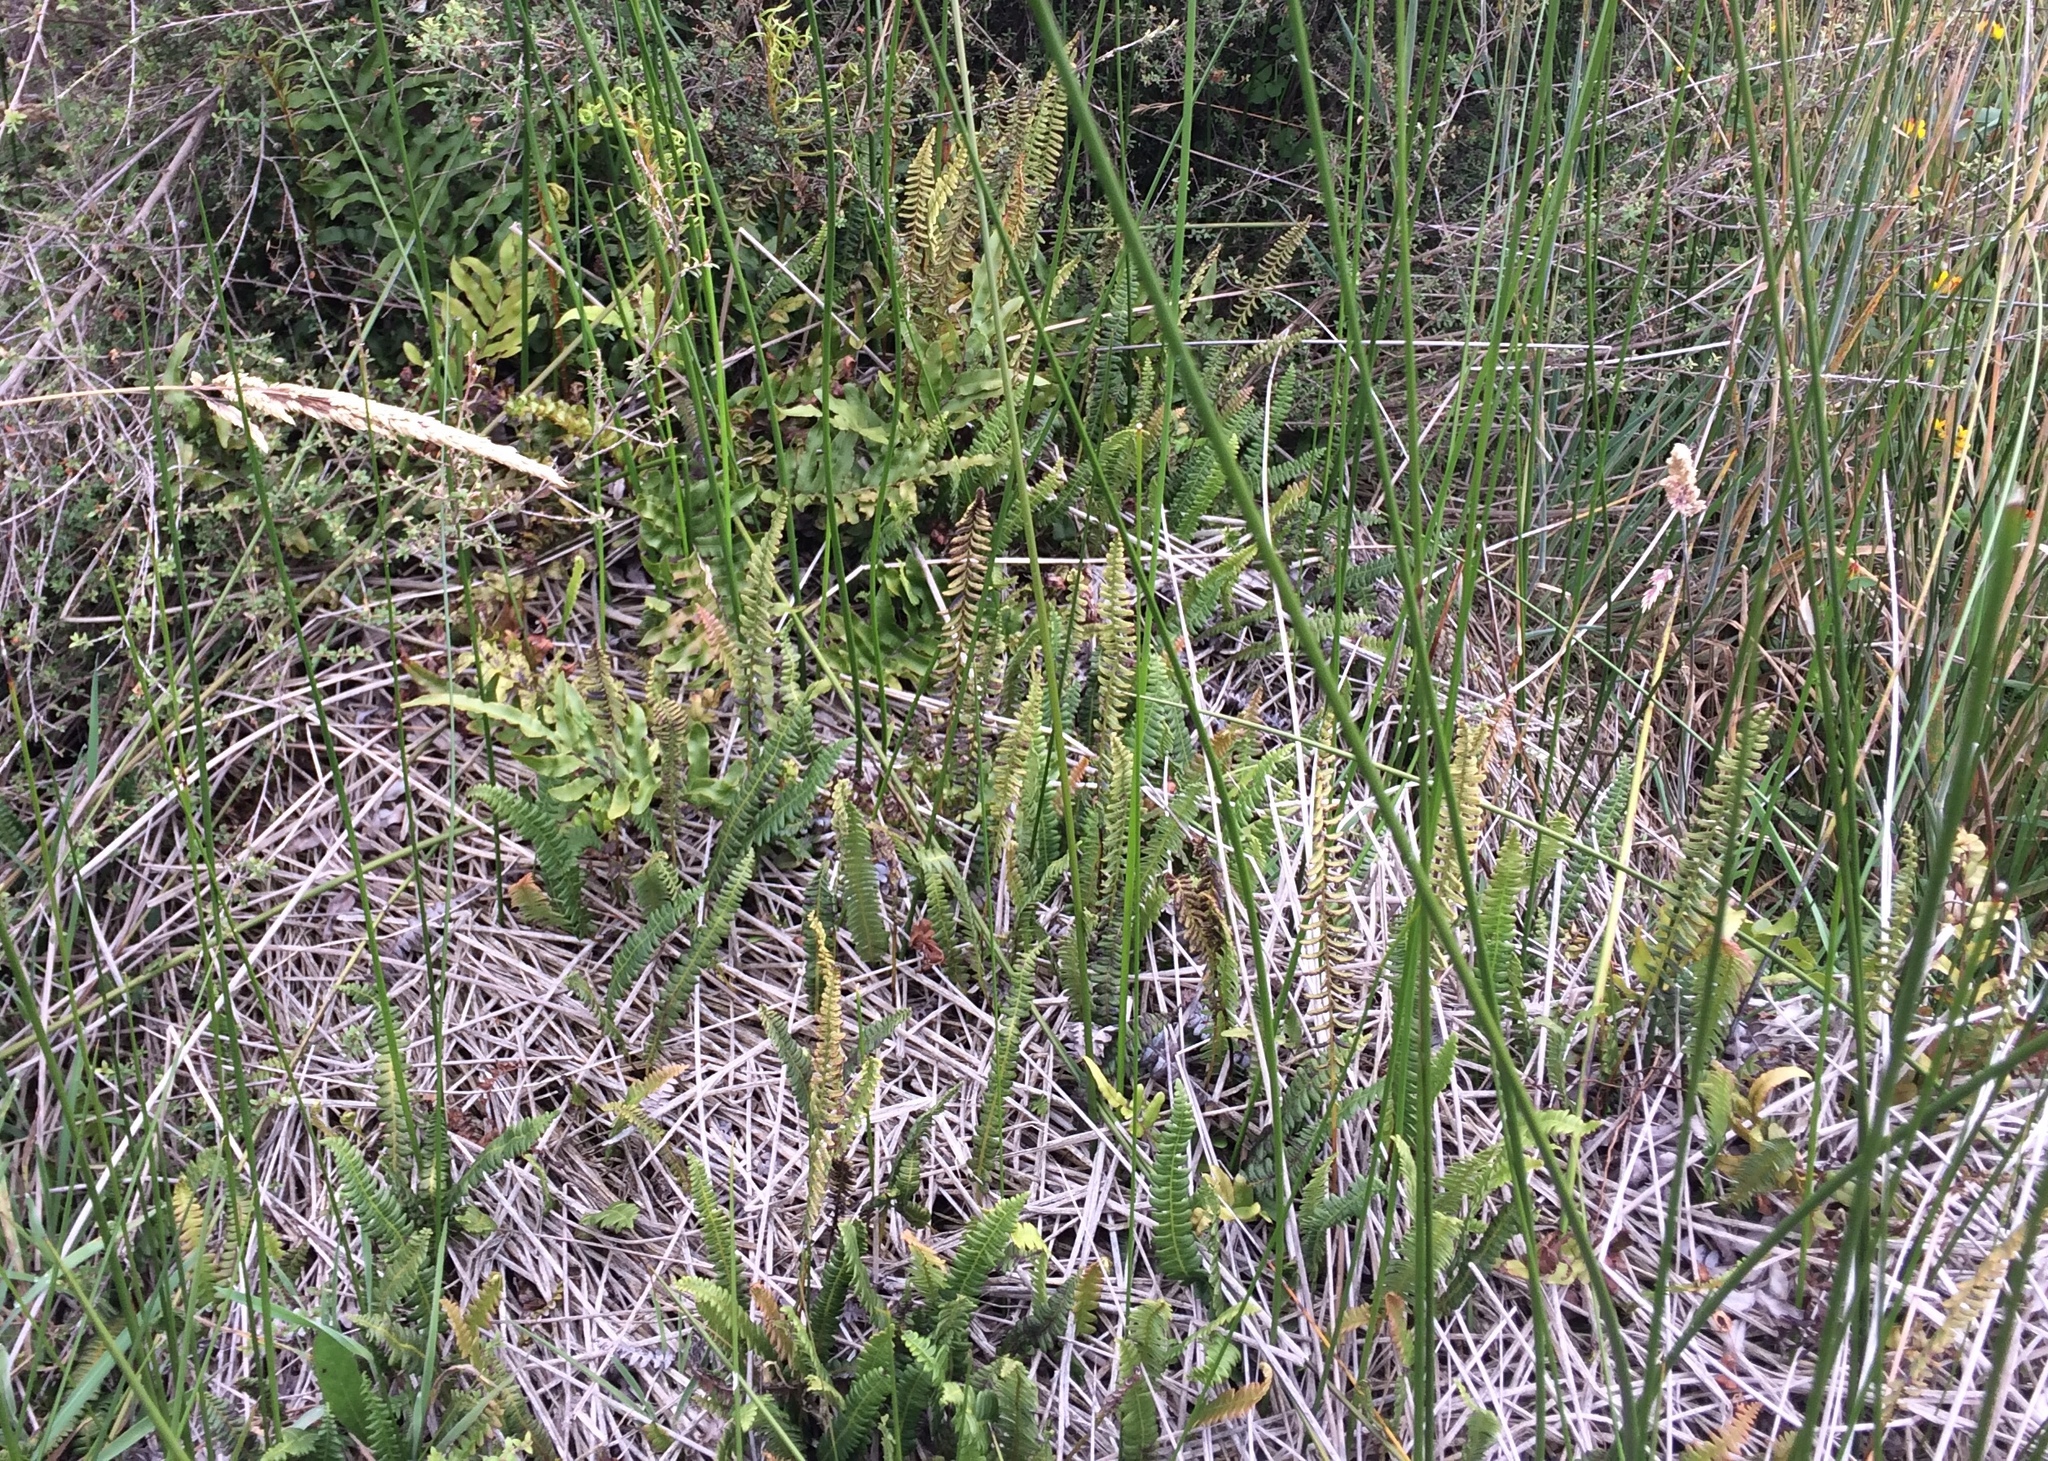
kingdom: Plantae
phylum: Tracheophyta
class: Polypodiopsida
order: Polypodiales
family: Blechnaceae
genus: Austroblechnum
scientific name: Austroblechnum penna-marina
